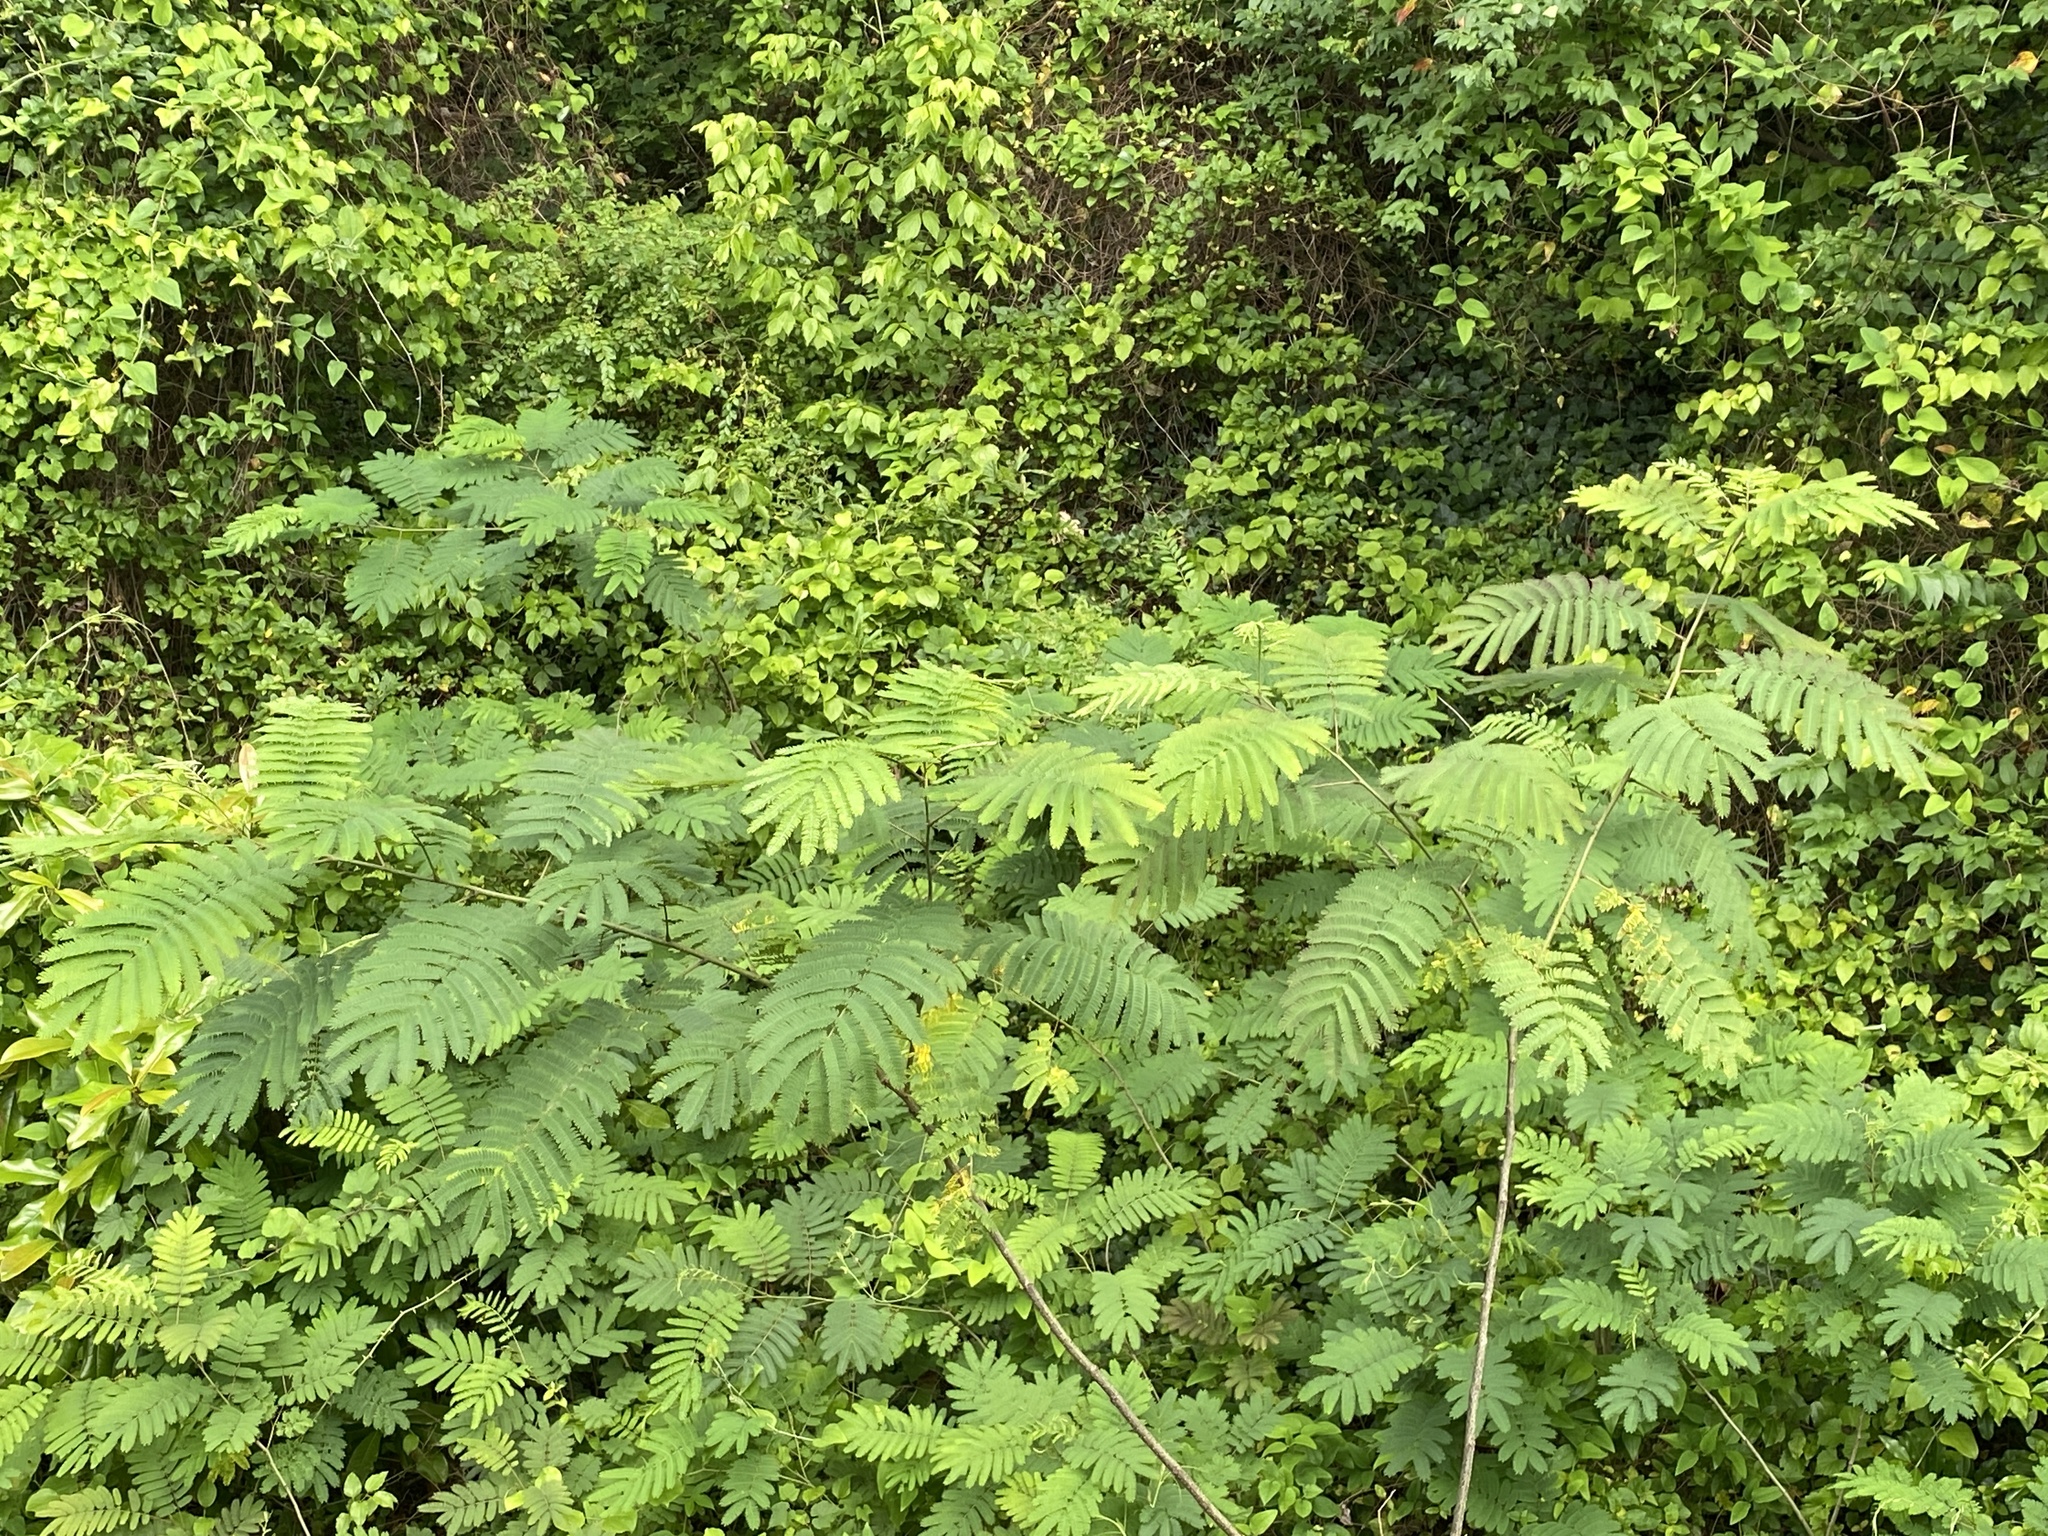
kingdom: Plantae
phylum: Tracheophyta
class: Magnoliopsida
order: Fabales
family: Fabaceae
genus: Albizia
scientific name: Albizia julibrissin
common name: Silktree
